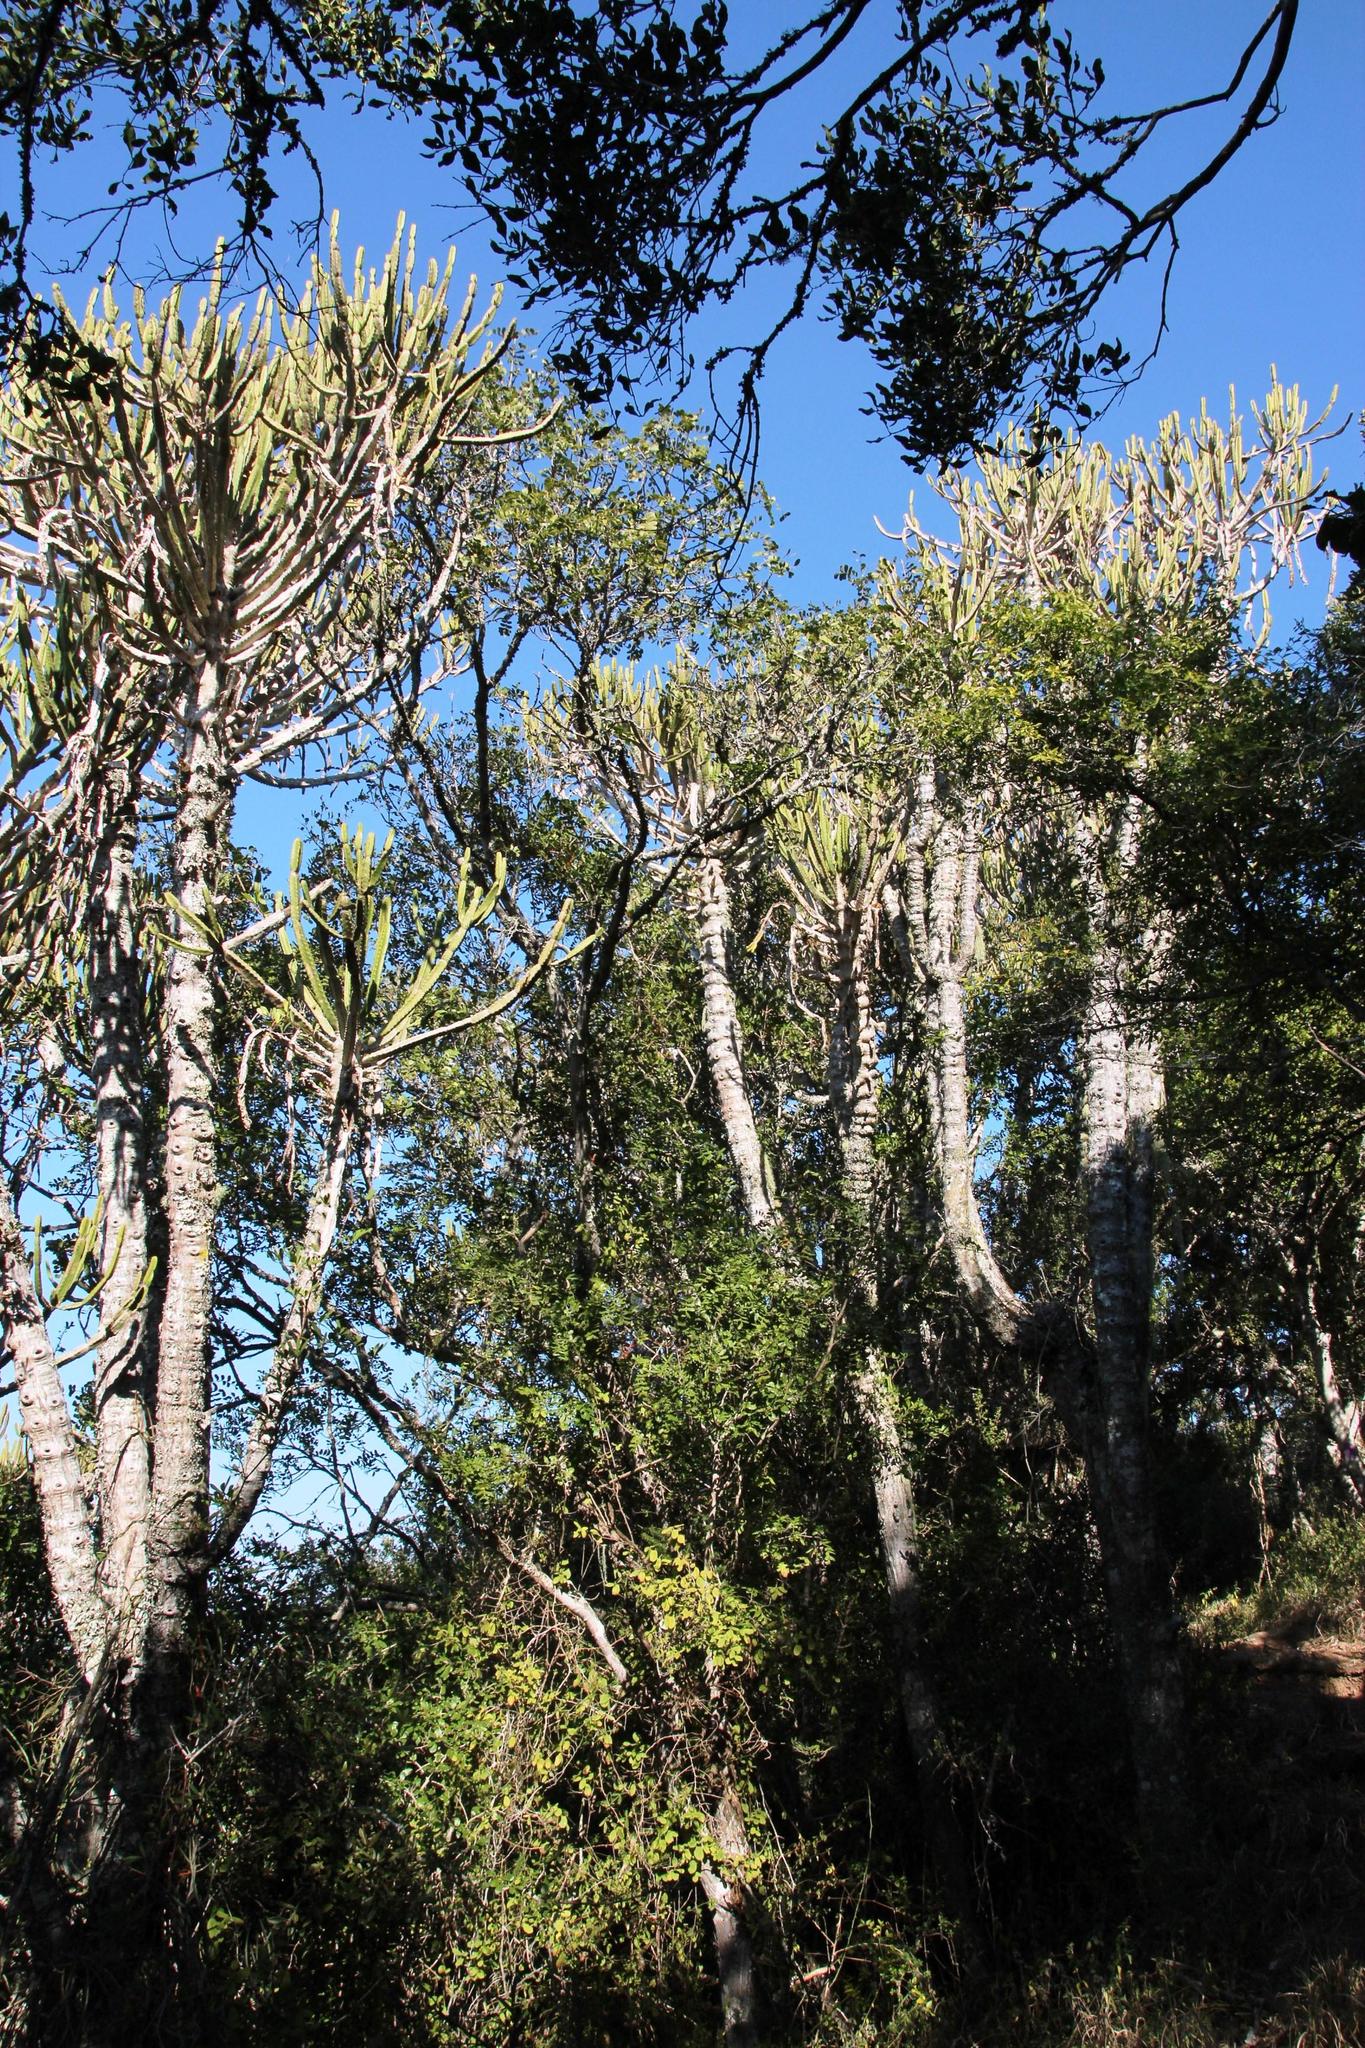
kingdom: Plantae
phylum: Tracheophyta
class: Magnoliopsida
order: Malpighiales
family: Euphorbiaceae
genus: Euphorbia
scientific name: Euphorbia triangularis
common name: Chandelier tree
